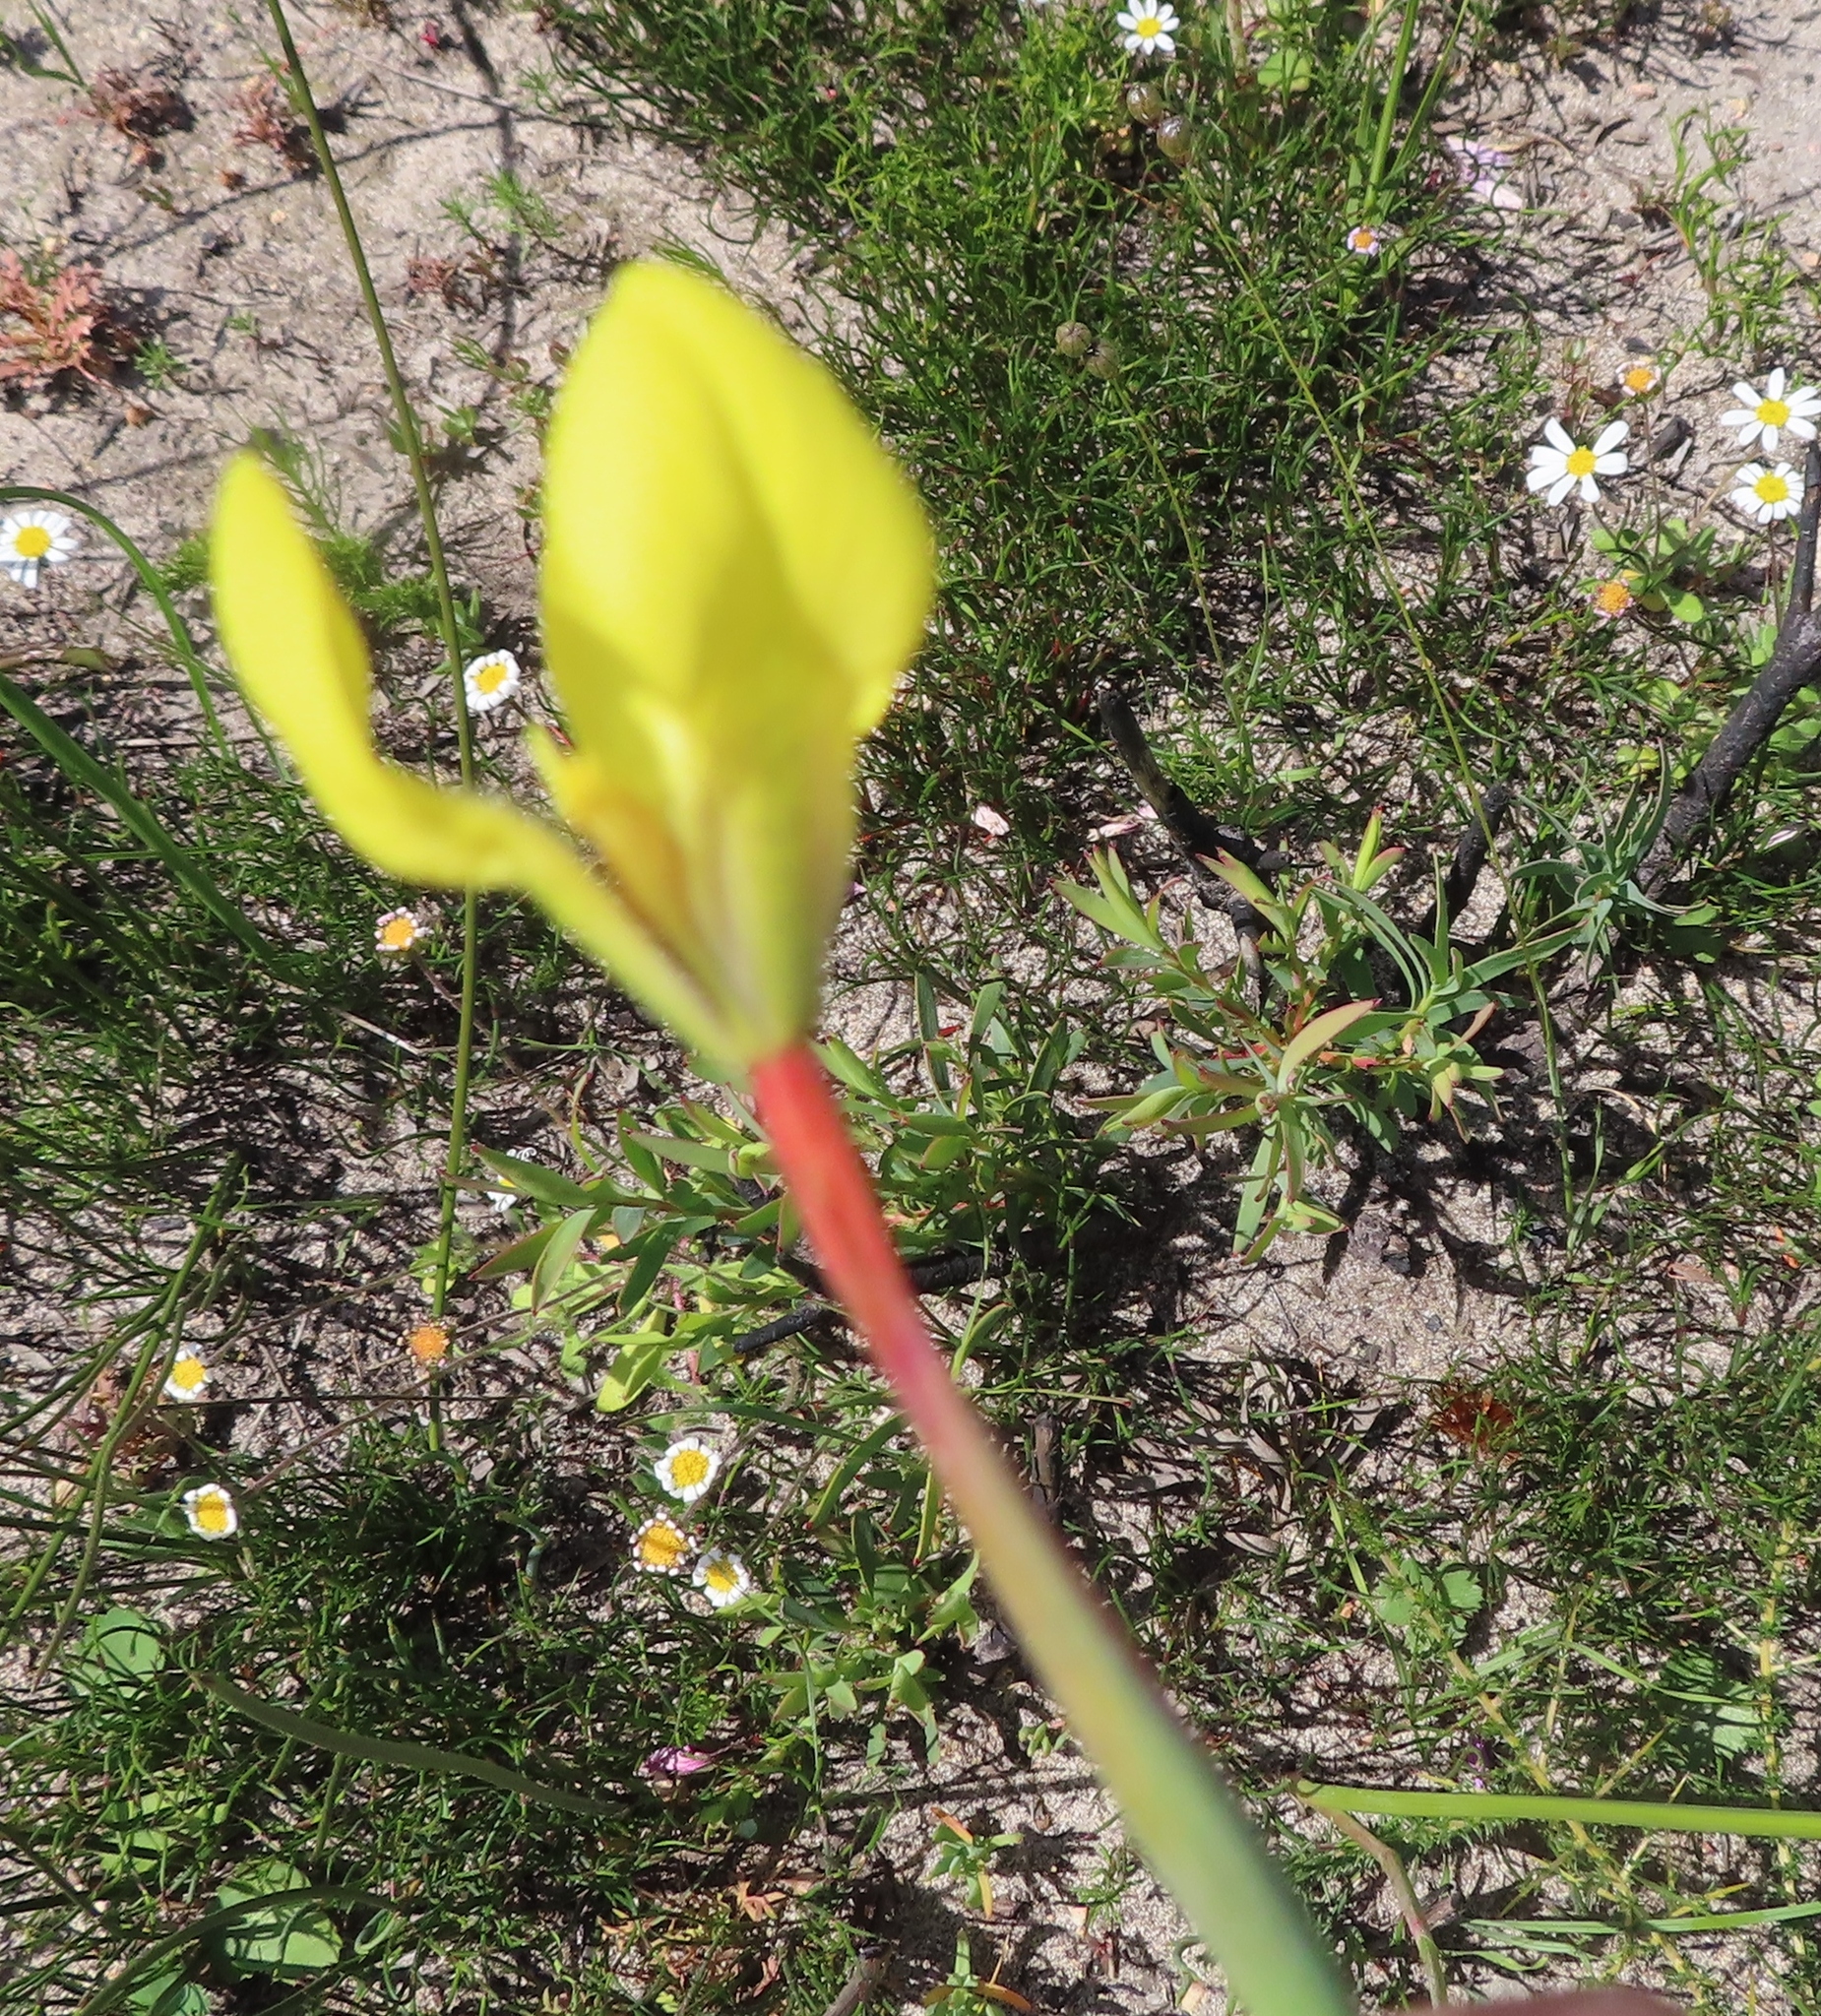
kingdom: Plantae
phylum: Tracheophyta
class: Liliopsida
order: Asparagales
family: Iridaceae
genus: Moraea
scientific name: Moraea bellendenii
